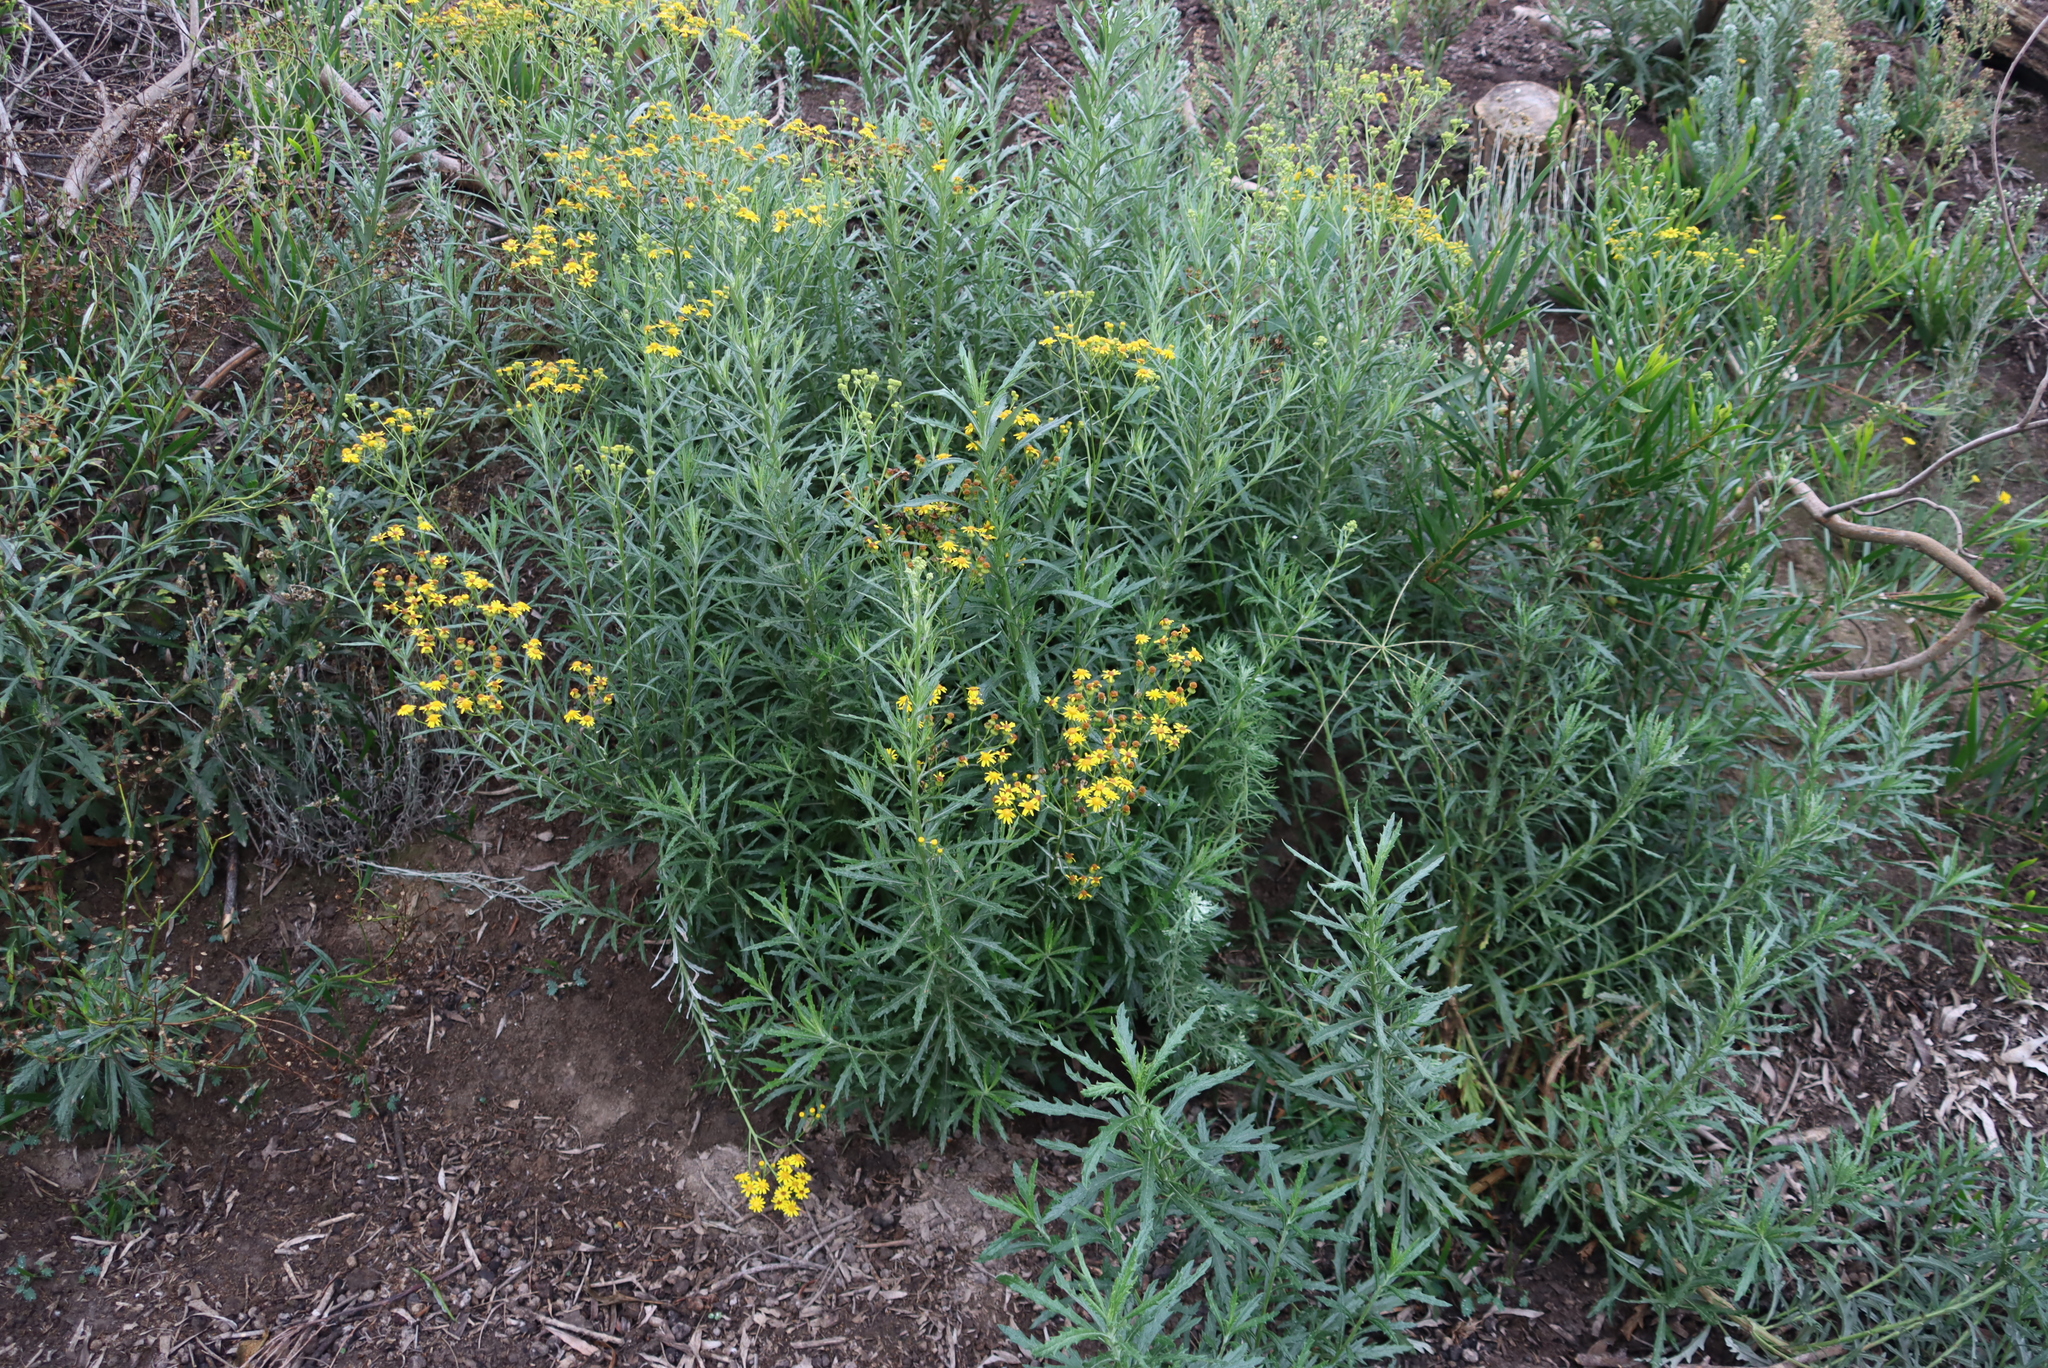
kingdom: Plantae
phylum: Tracheophyta
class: Magnoliopsida
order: Asterales
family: Asteraceae
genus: Senecio
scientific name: Senecio pterophorus
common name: Shoddy ragwort
